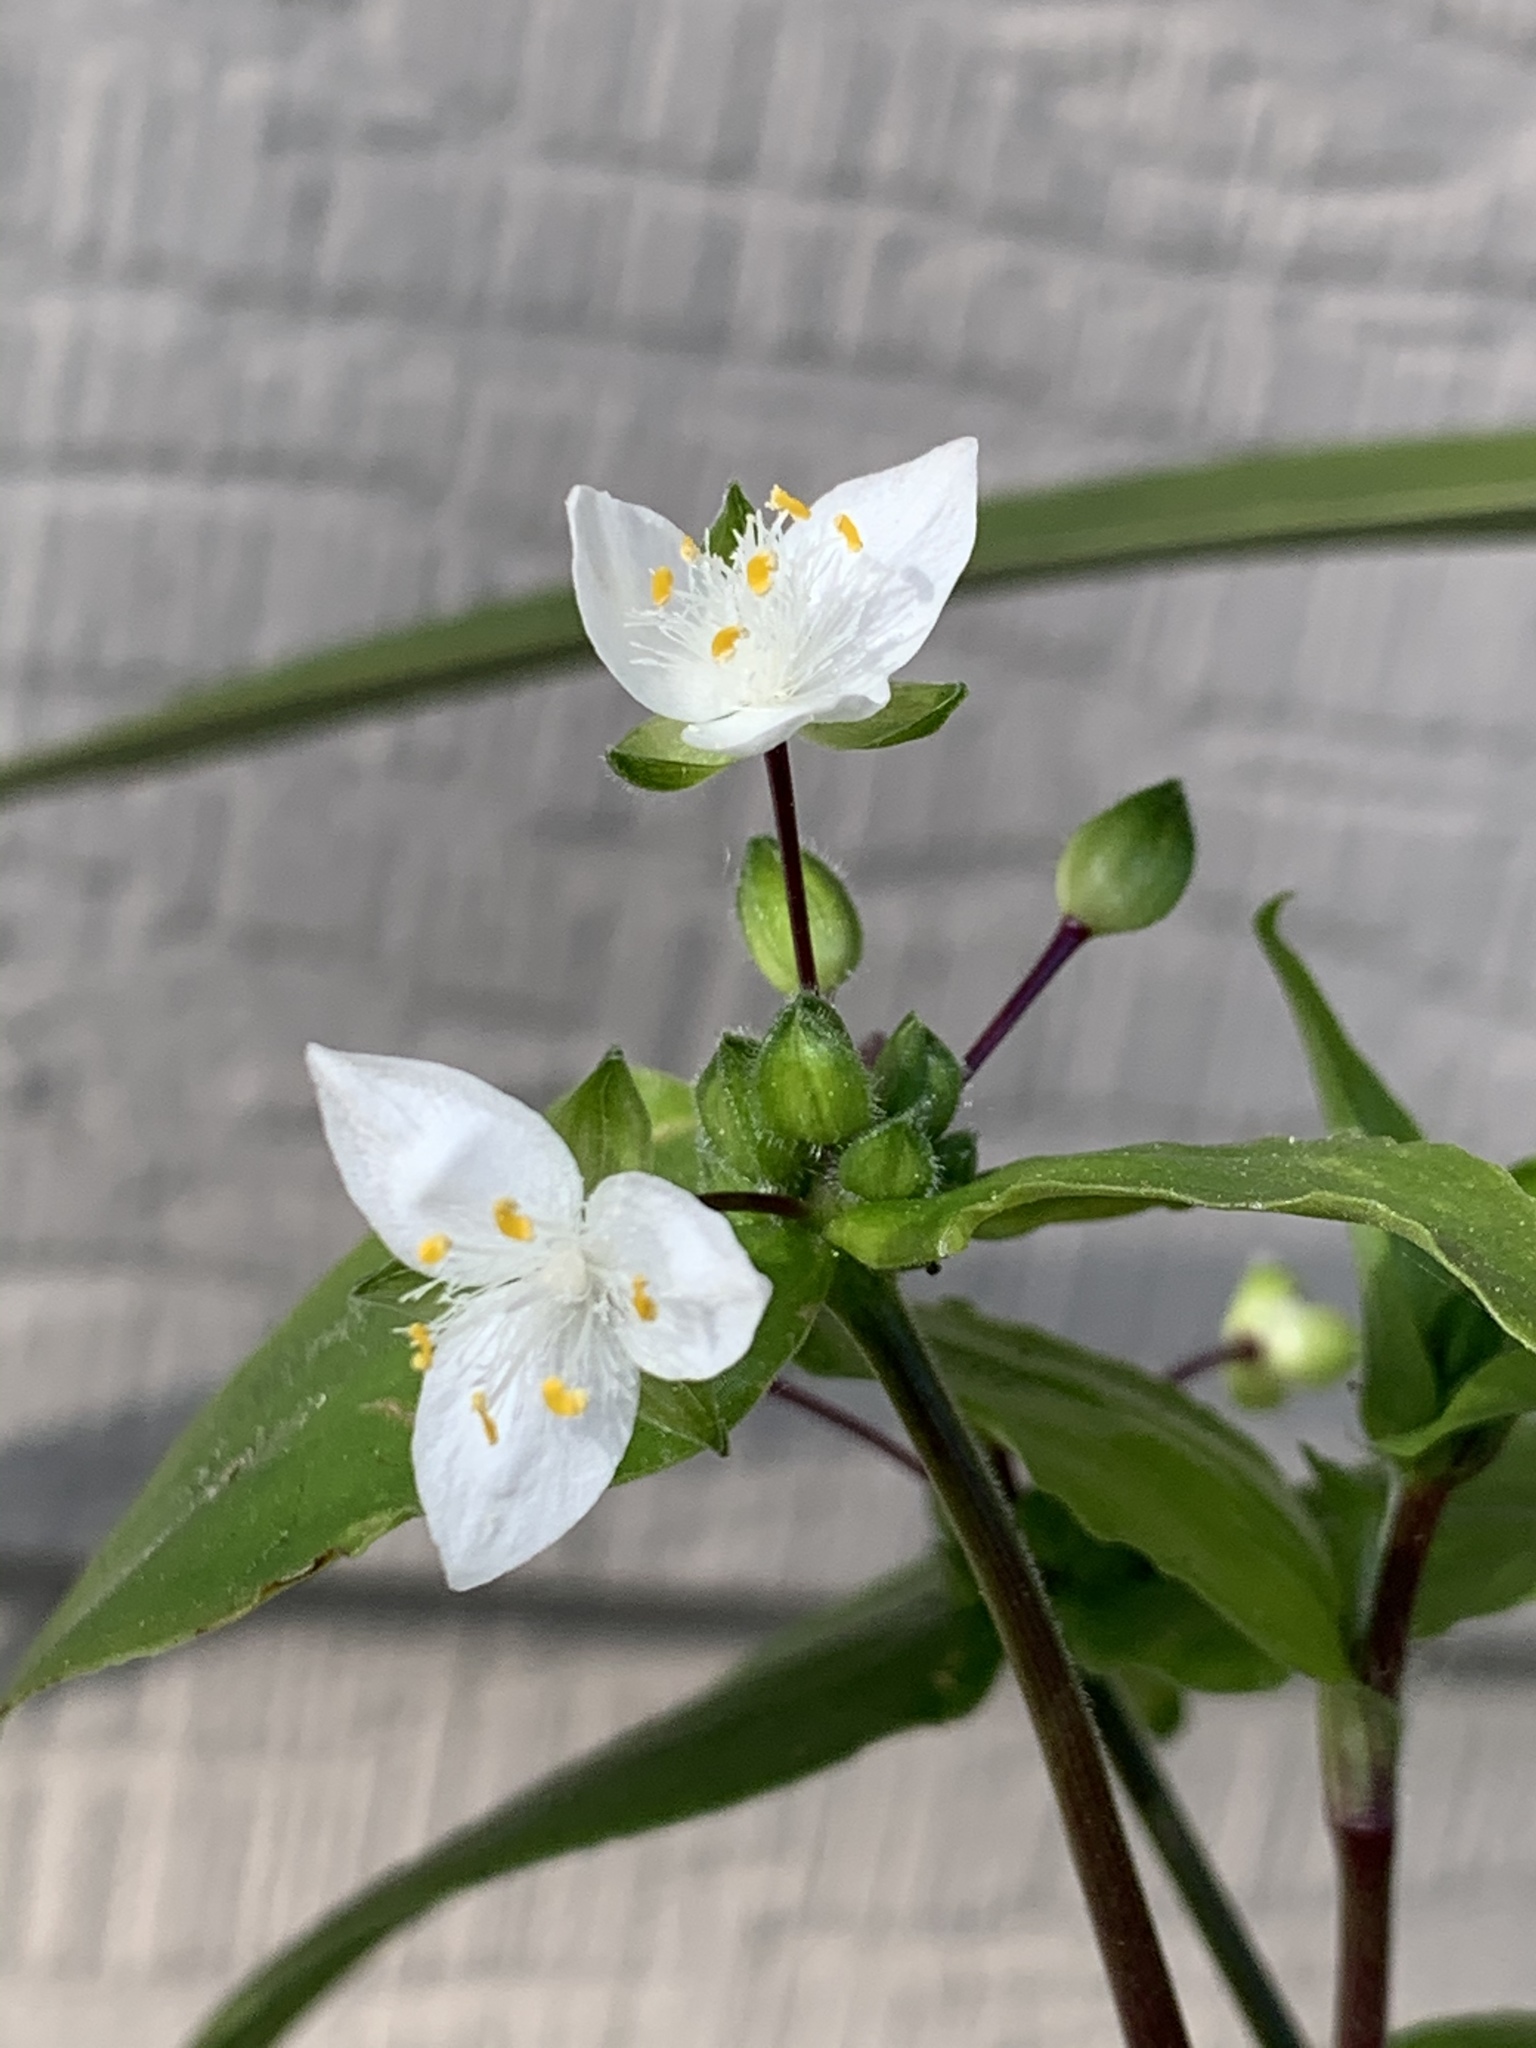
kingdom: Plantae
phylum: Tracheophyta
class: Liliopsida
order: Commelinales
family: Commelinaceae
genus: Tradescantia
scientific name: Tradescantia fluminensis
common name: Wandering-jew
